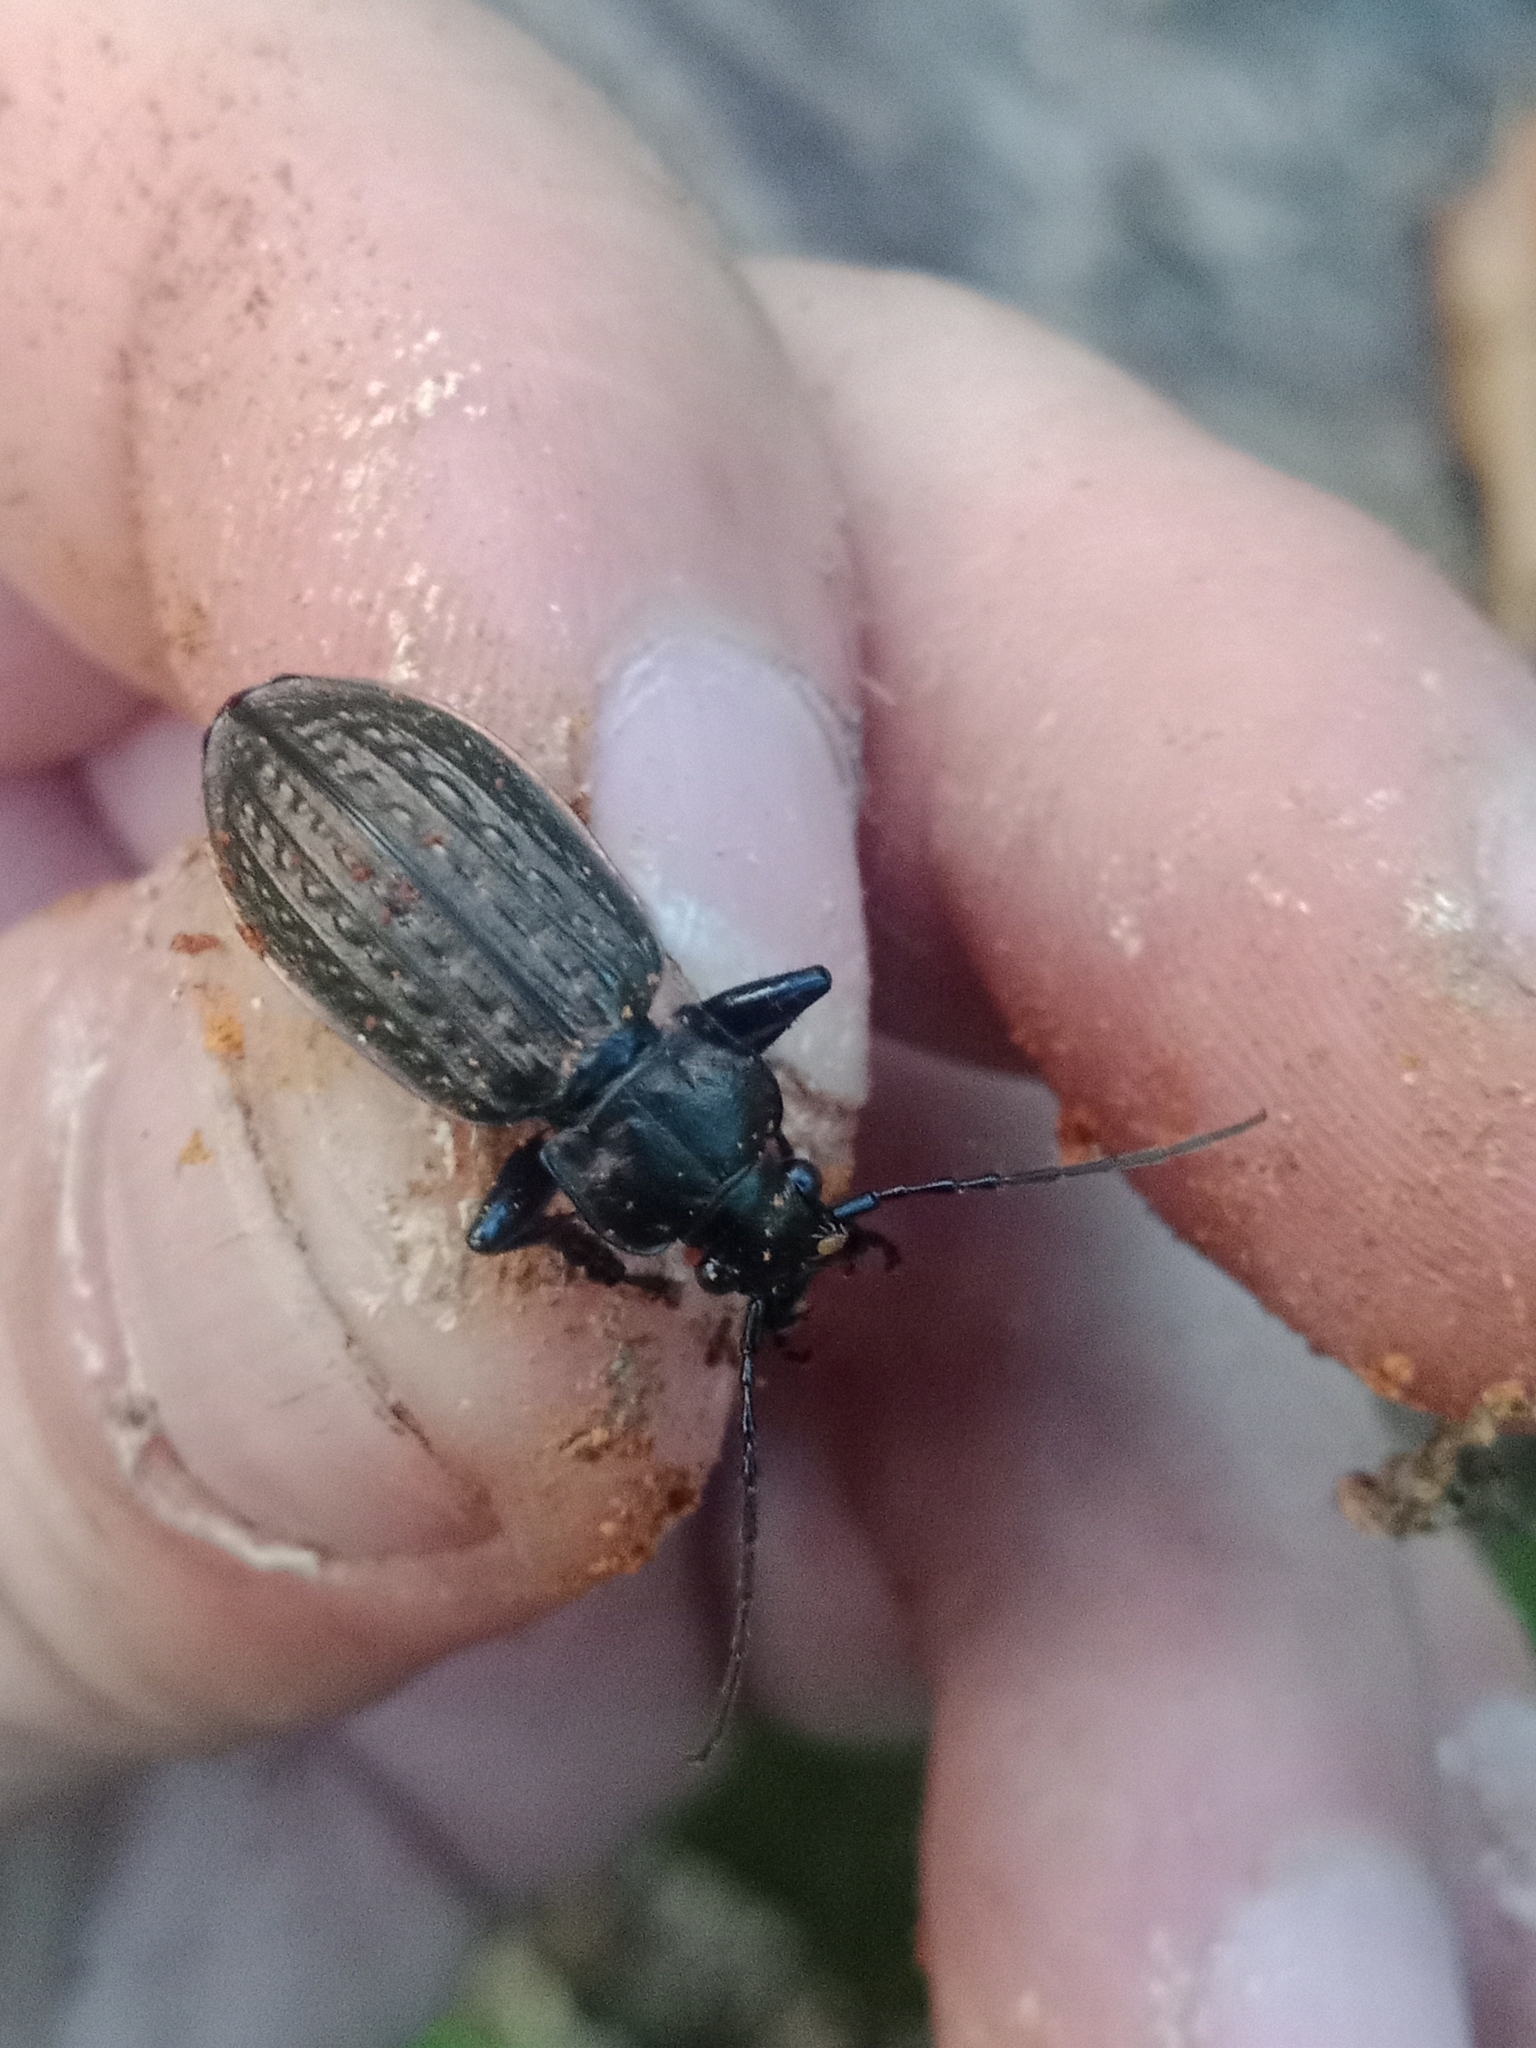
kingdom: Animalia
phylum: Arthropoda
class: Insecta
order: Coleoptera
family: Carabidae
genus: Carabus
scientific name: Carabus granulatus
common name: Granulate ground beetle
